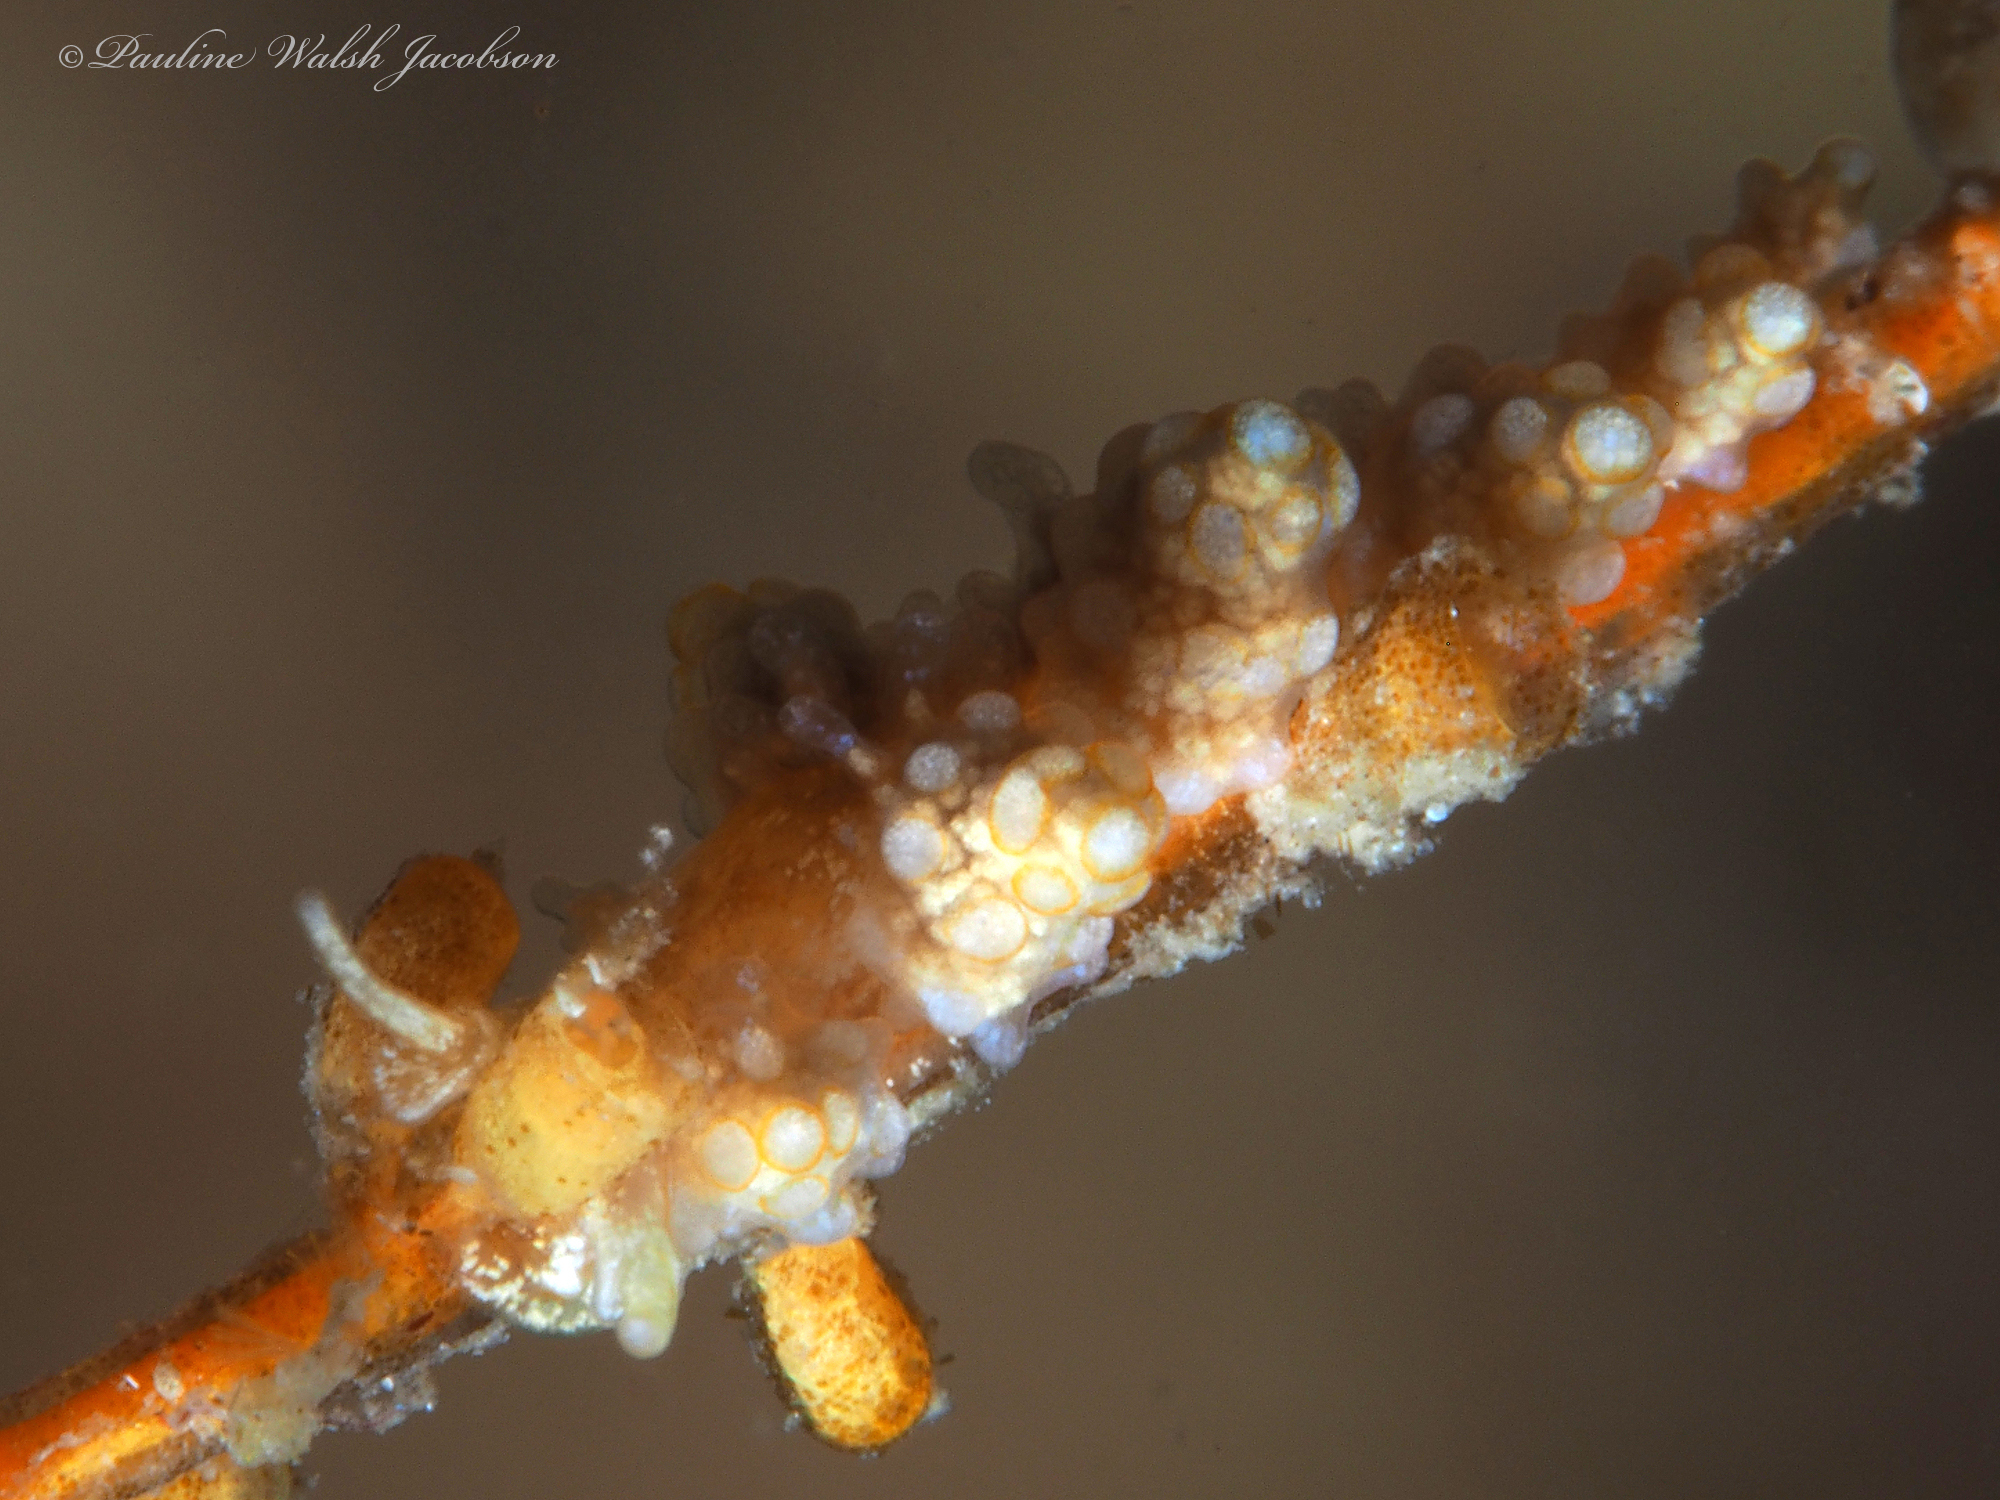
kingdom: Animalia
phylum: Mollusca
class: Gastropoda
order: Nudibranchia
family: Dotidae
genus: Doto
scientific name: Doto torrelavega
